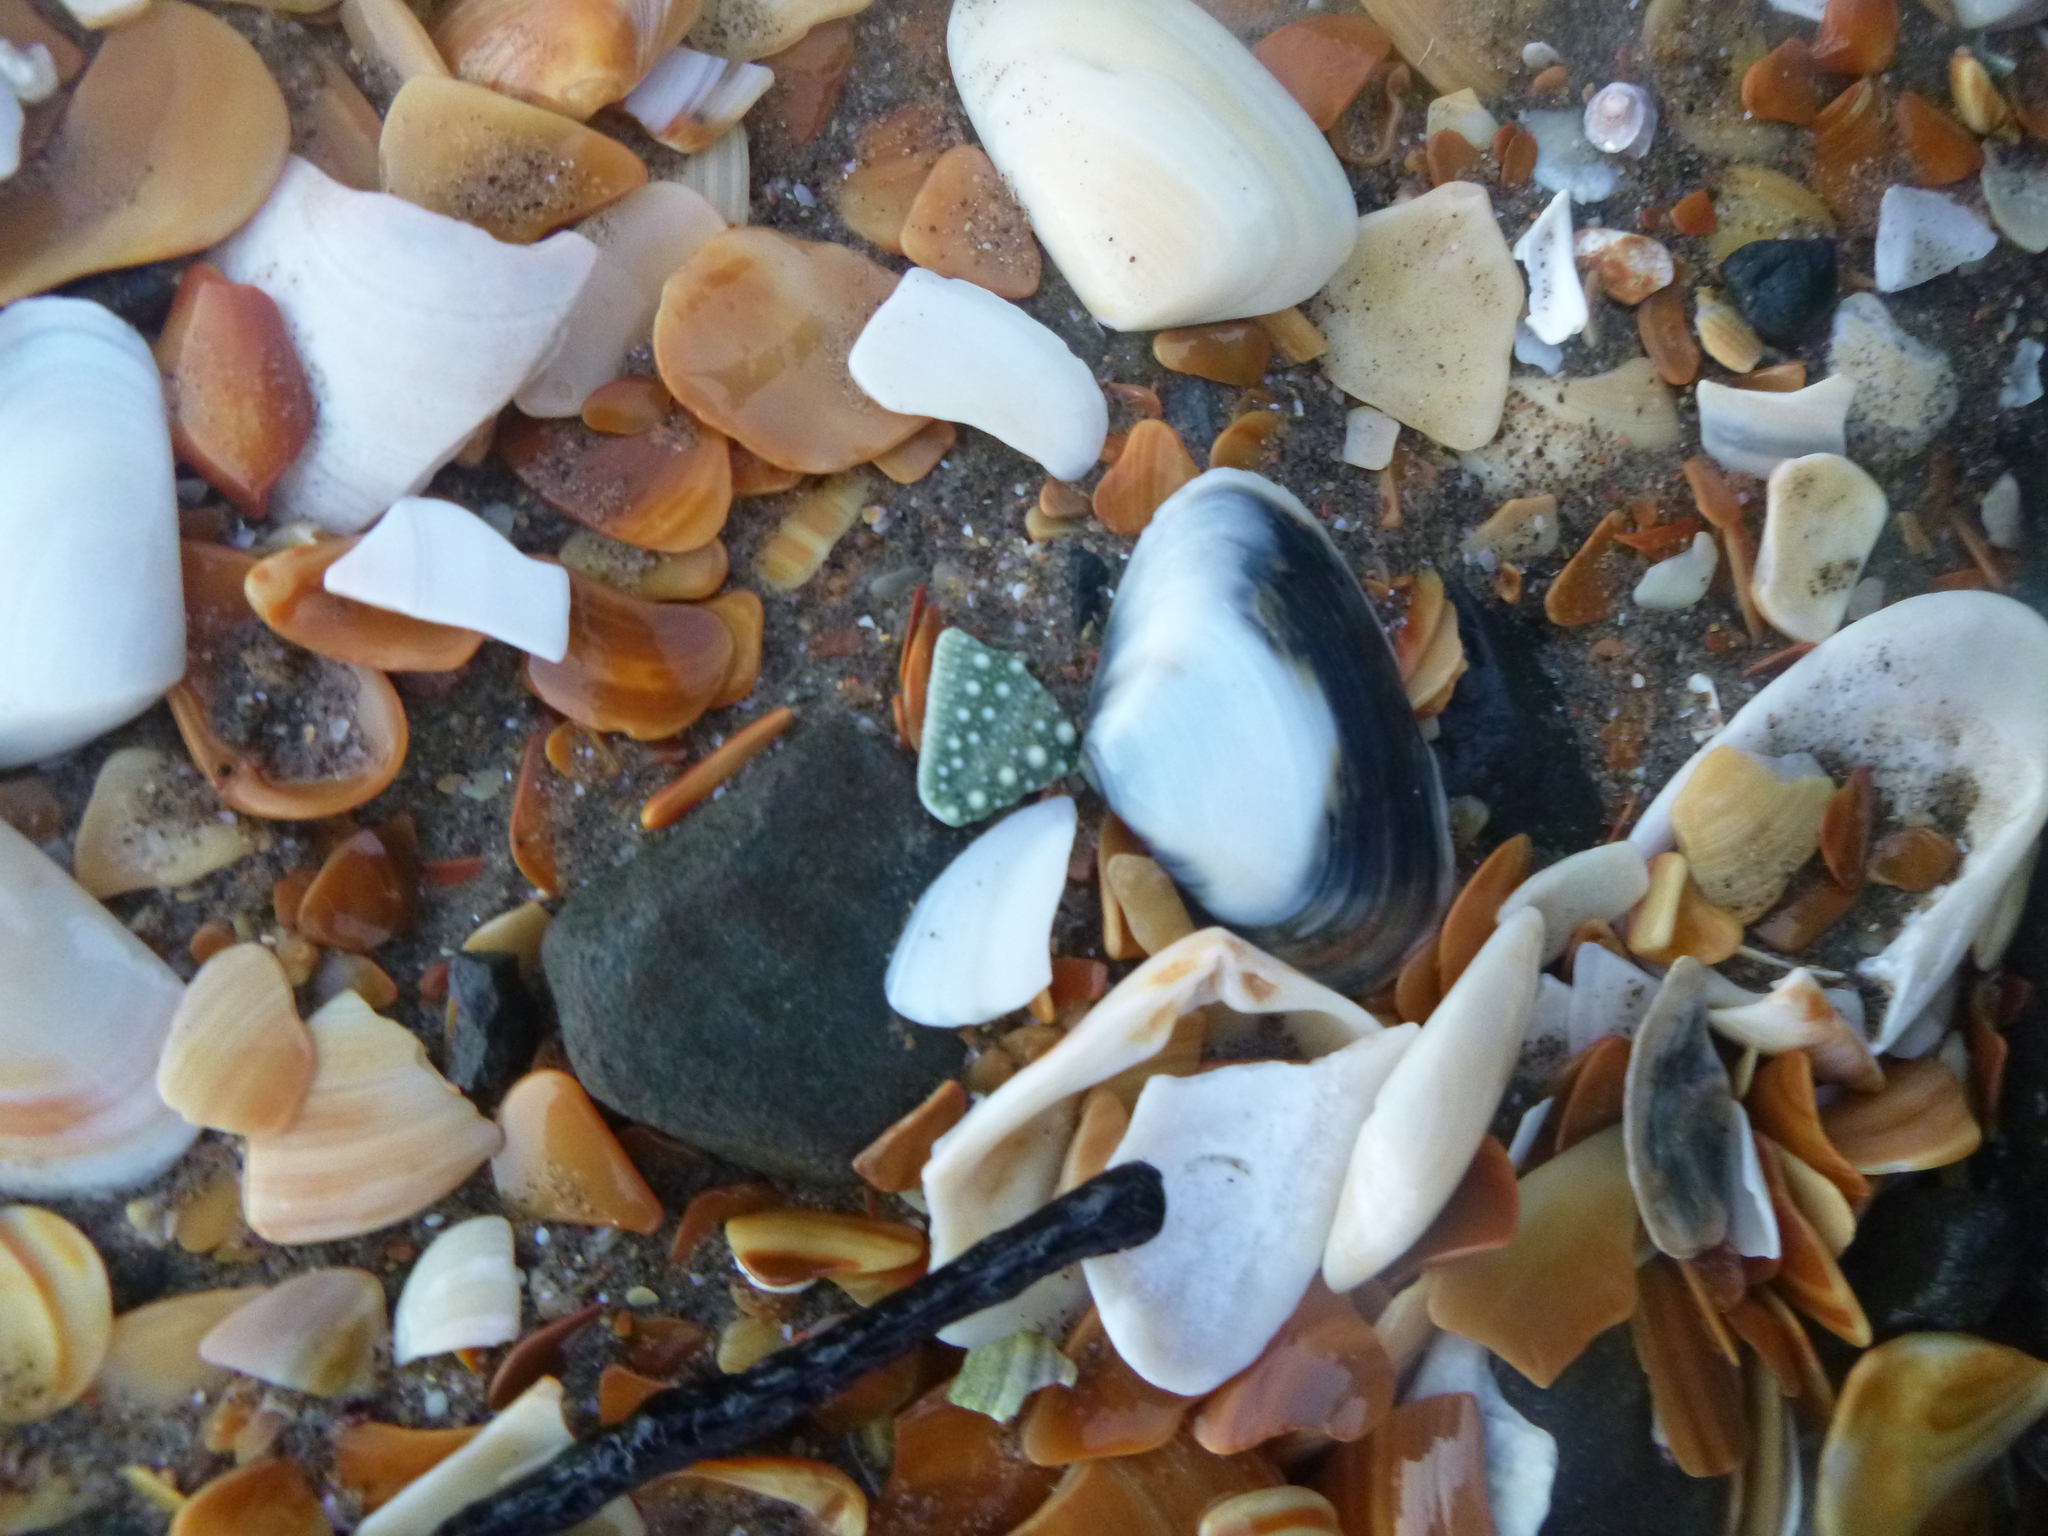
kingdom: Animalia
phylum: Echinodermata
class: Echinoidea
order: Camarodonta
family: Echinometridae
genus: Evechinus
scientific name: Evechinus chloroticus
